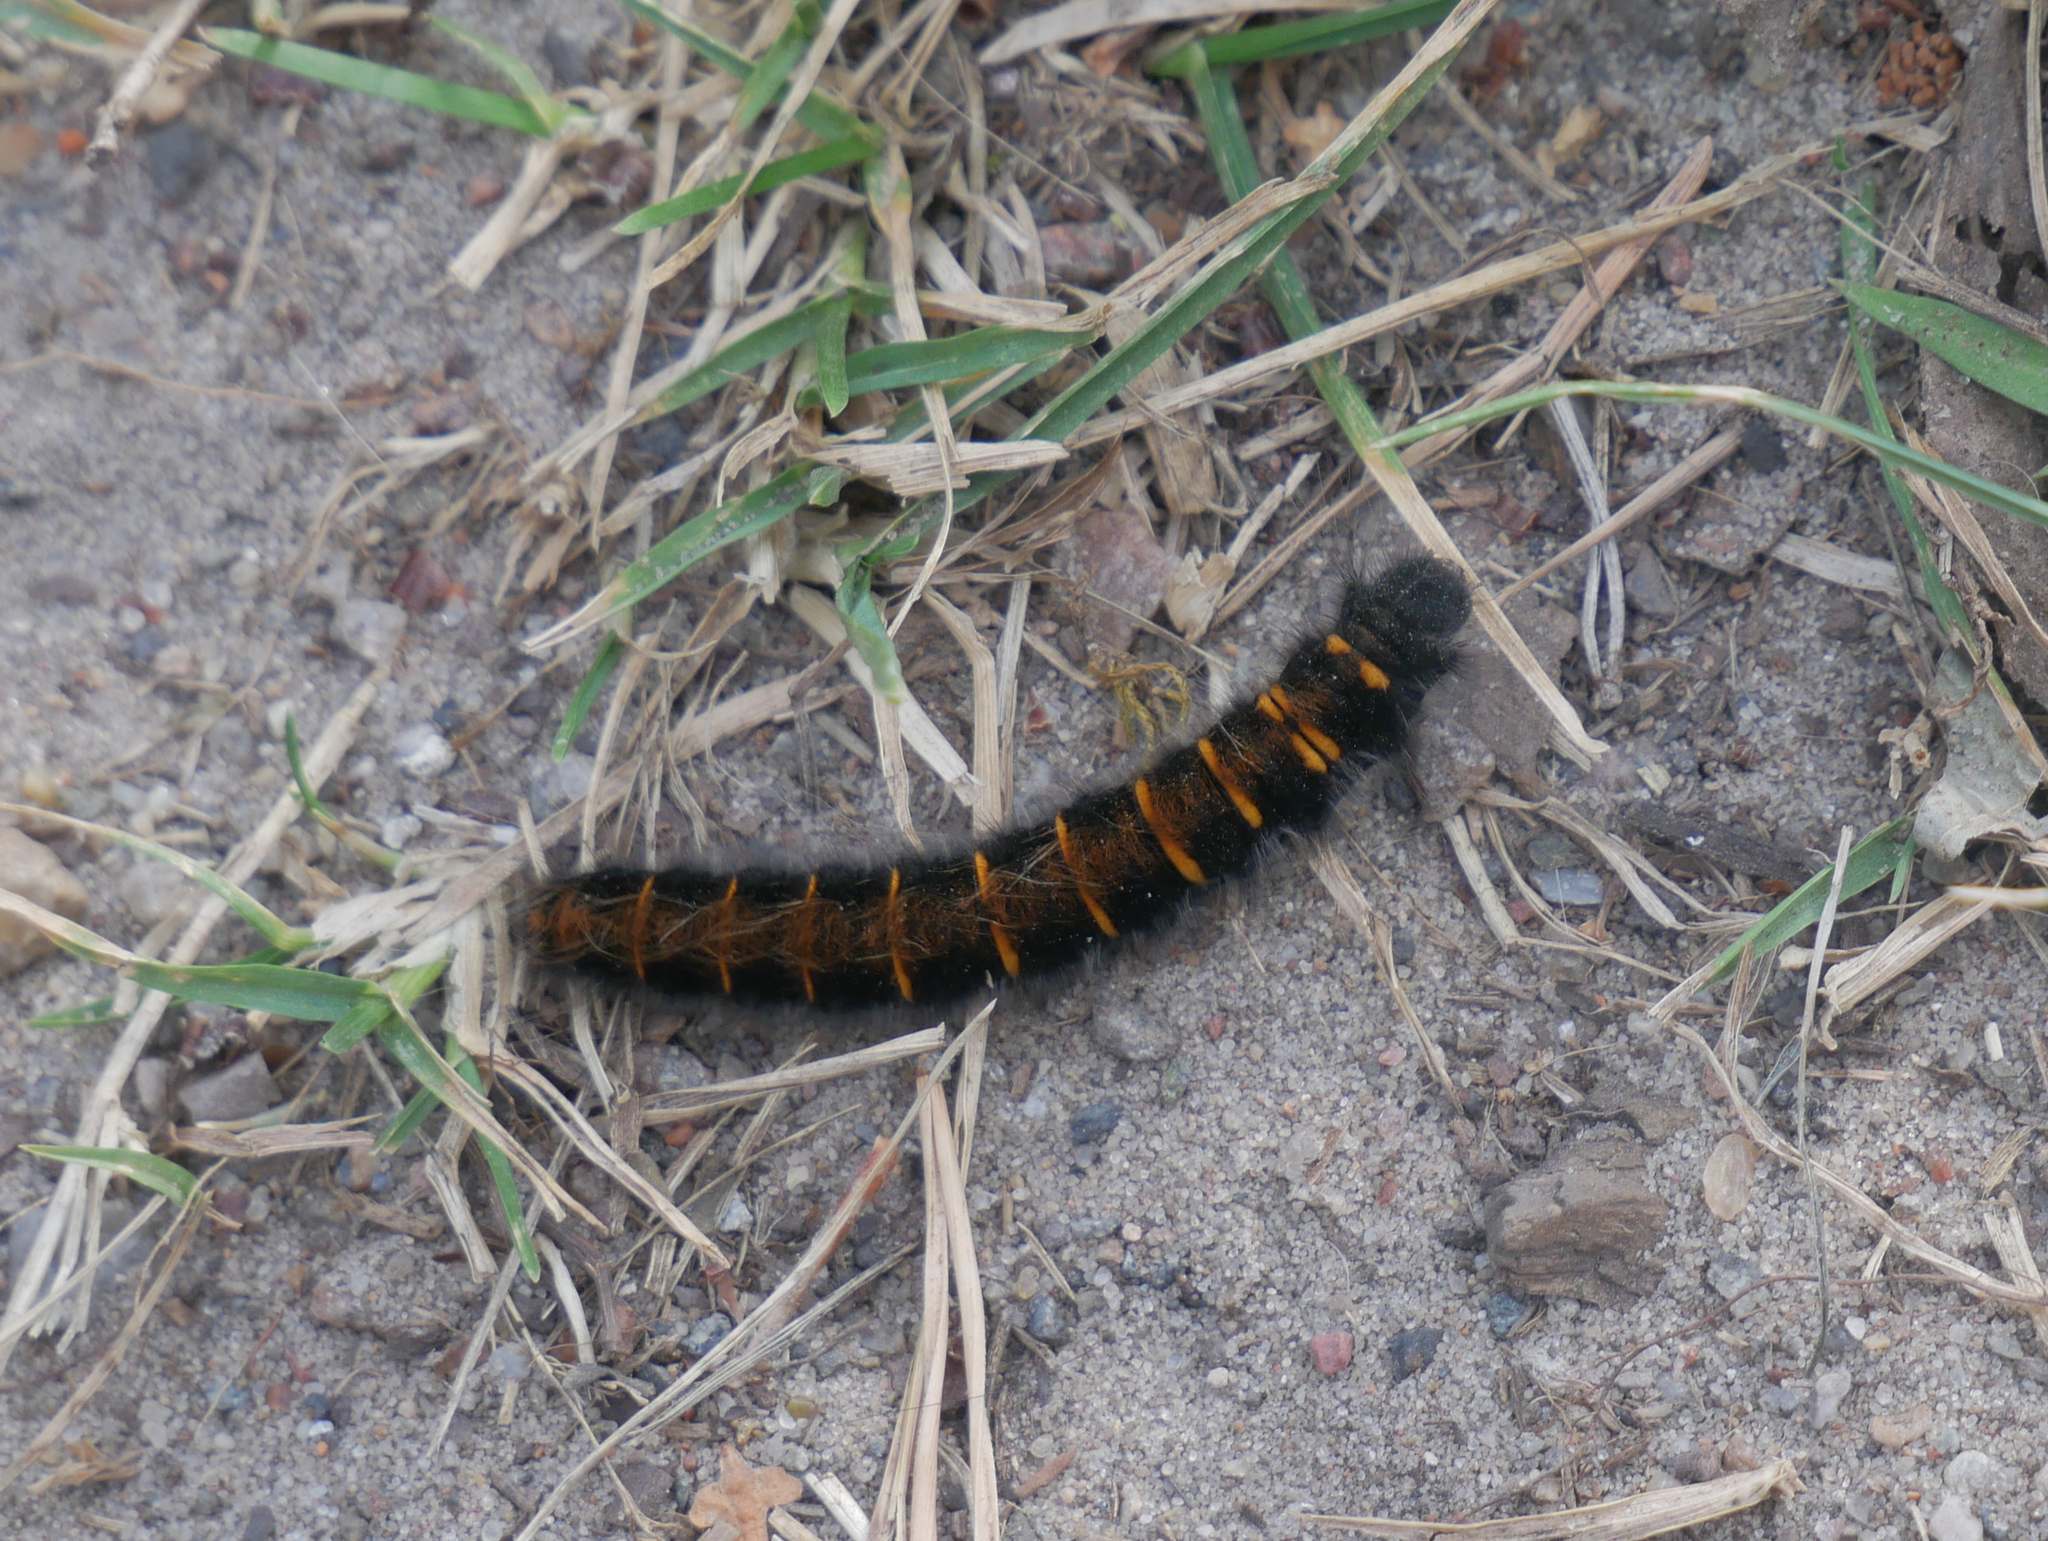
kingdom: Animalia
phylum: Arthropoda
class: Insecta
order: Lepidoptera
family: Lasiocampidae
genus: Macrothylacia
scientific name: Macrothylacia rubi
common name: Fox moth
